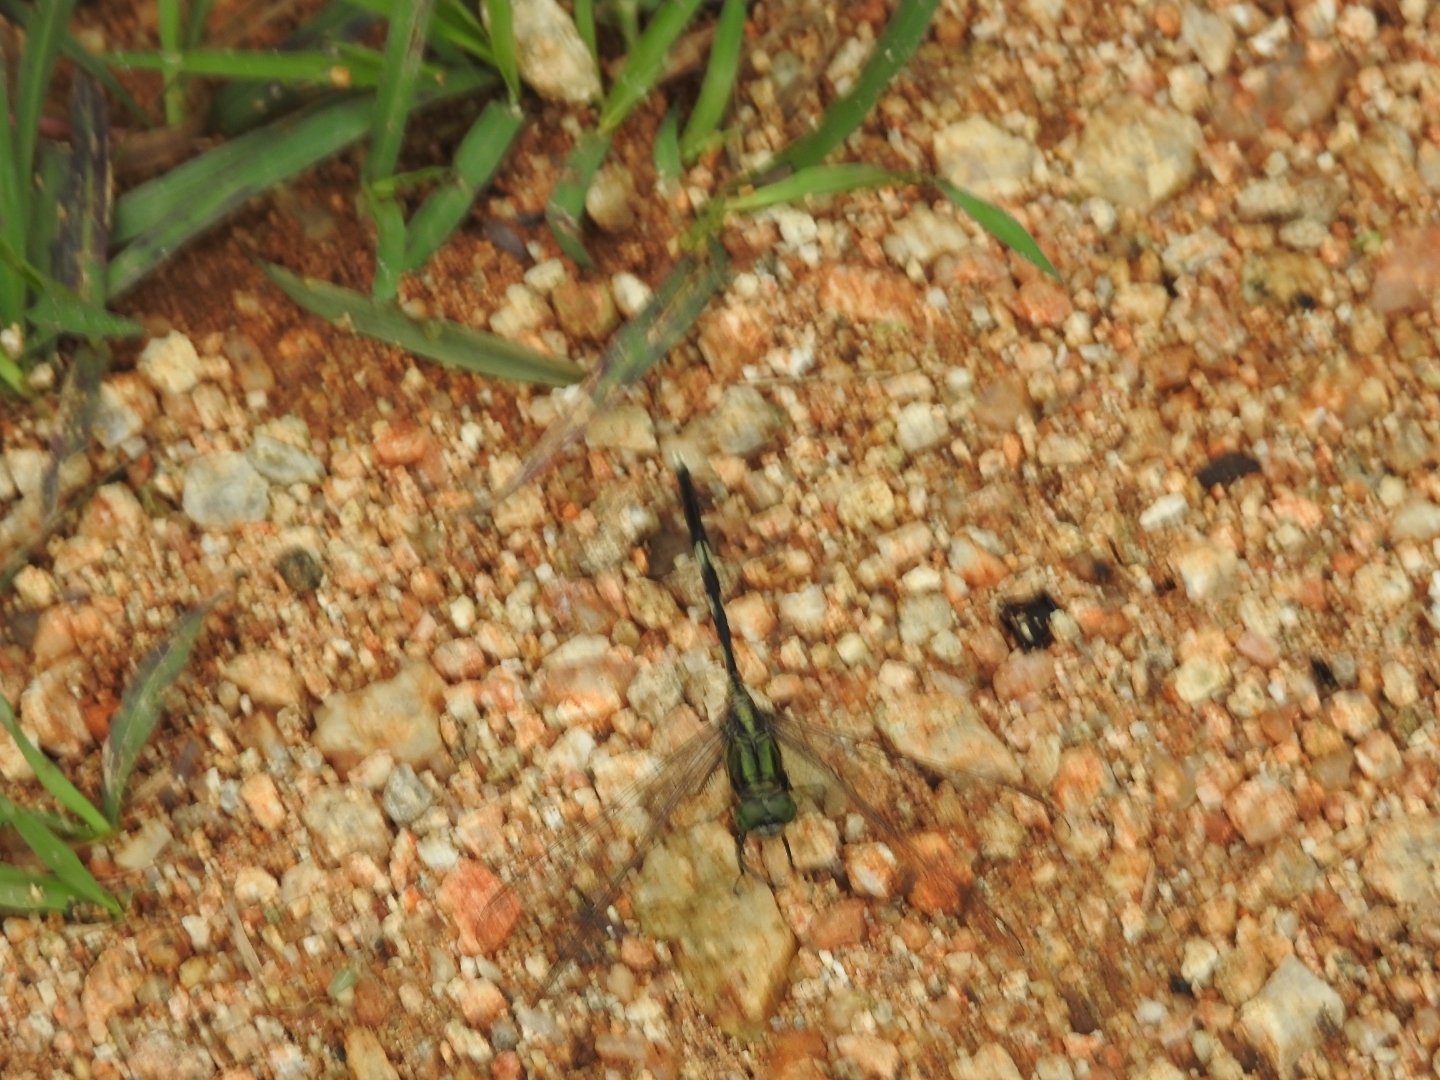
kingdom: Animalia
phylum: Arthropoda
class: Insecta
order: Odonata
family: Libellulidae
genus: Orthetrum
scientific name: Orthetrum sabina
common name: Slender skimmer
